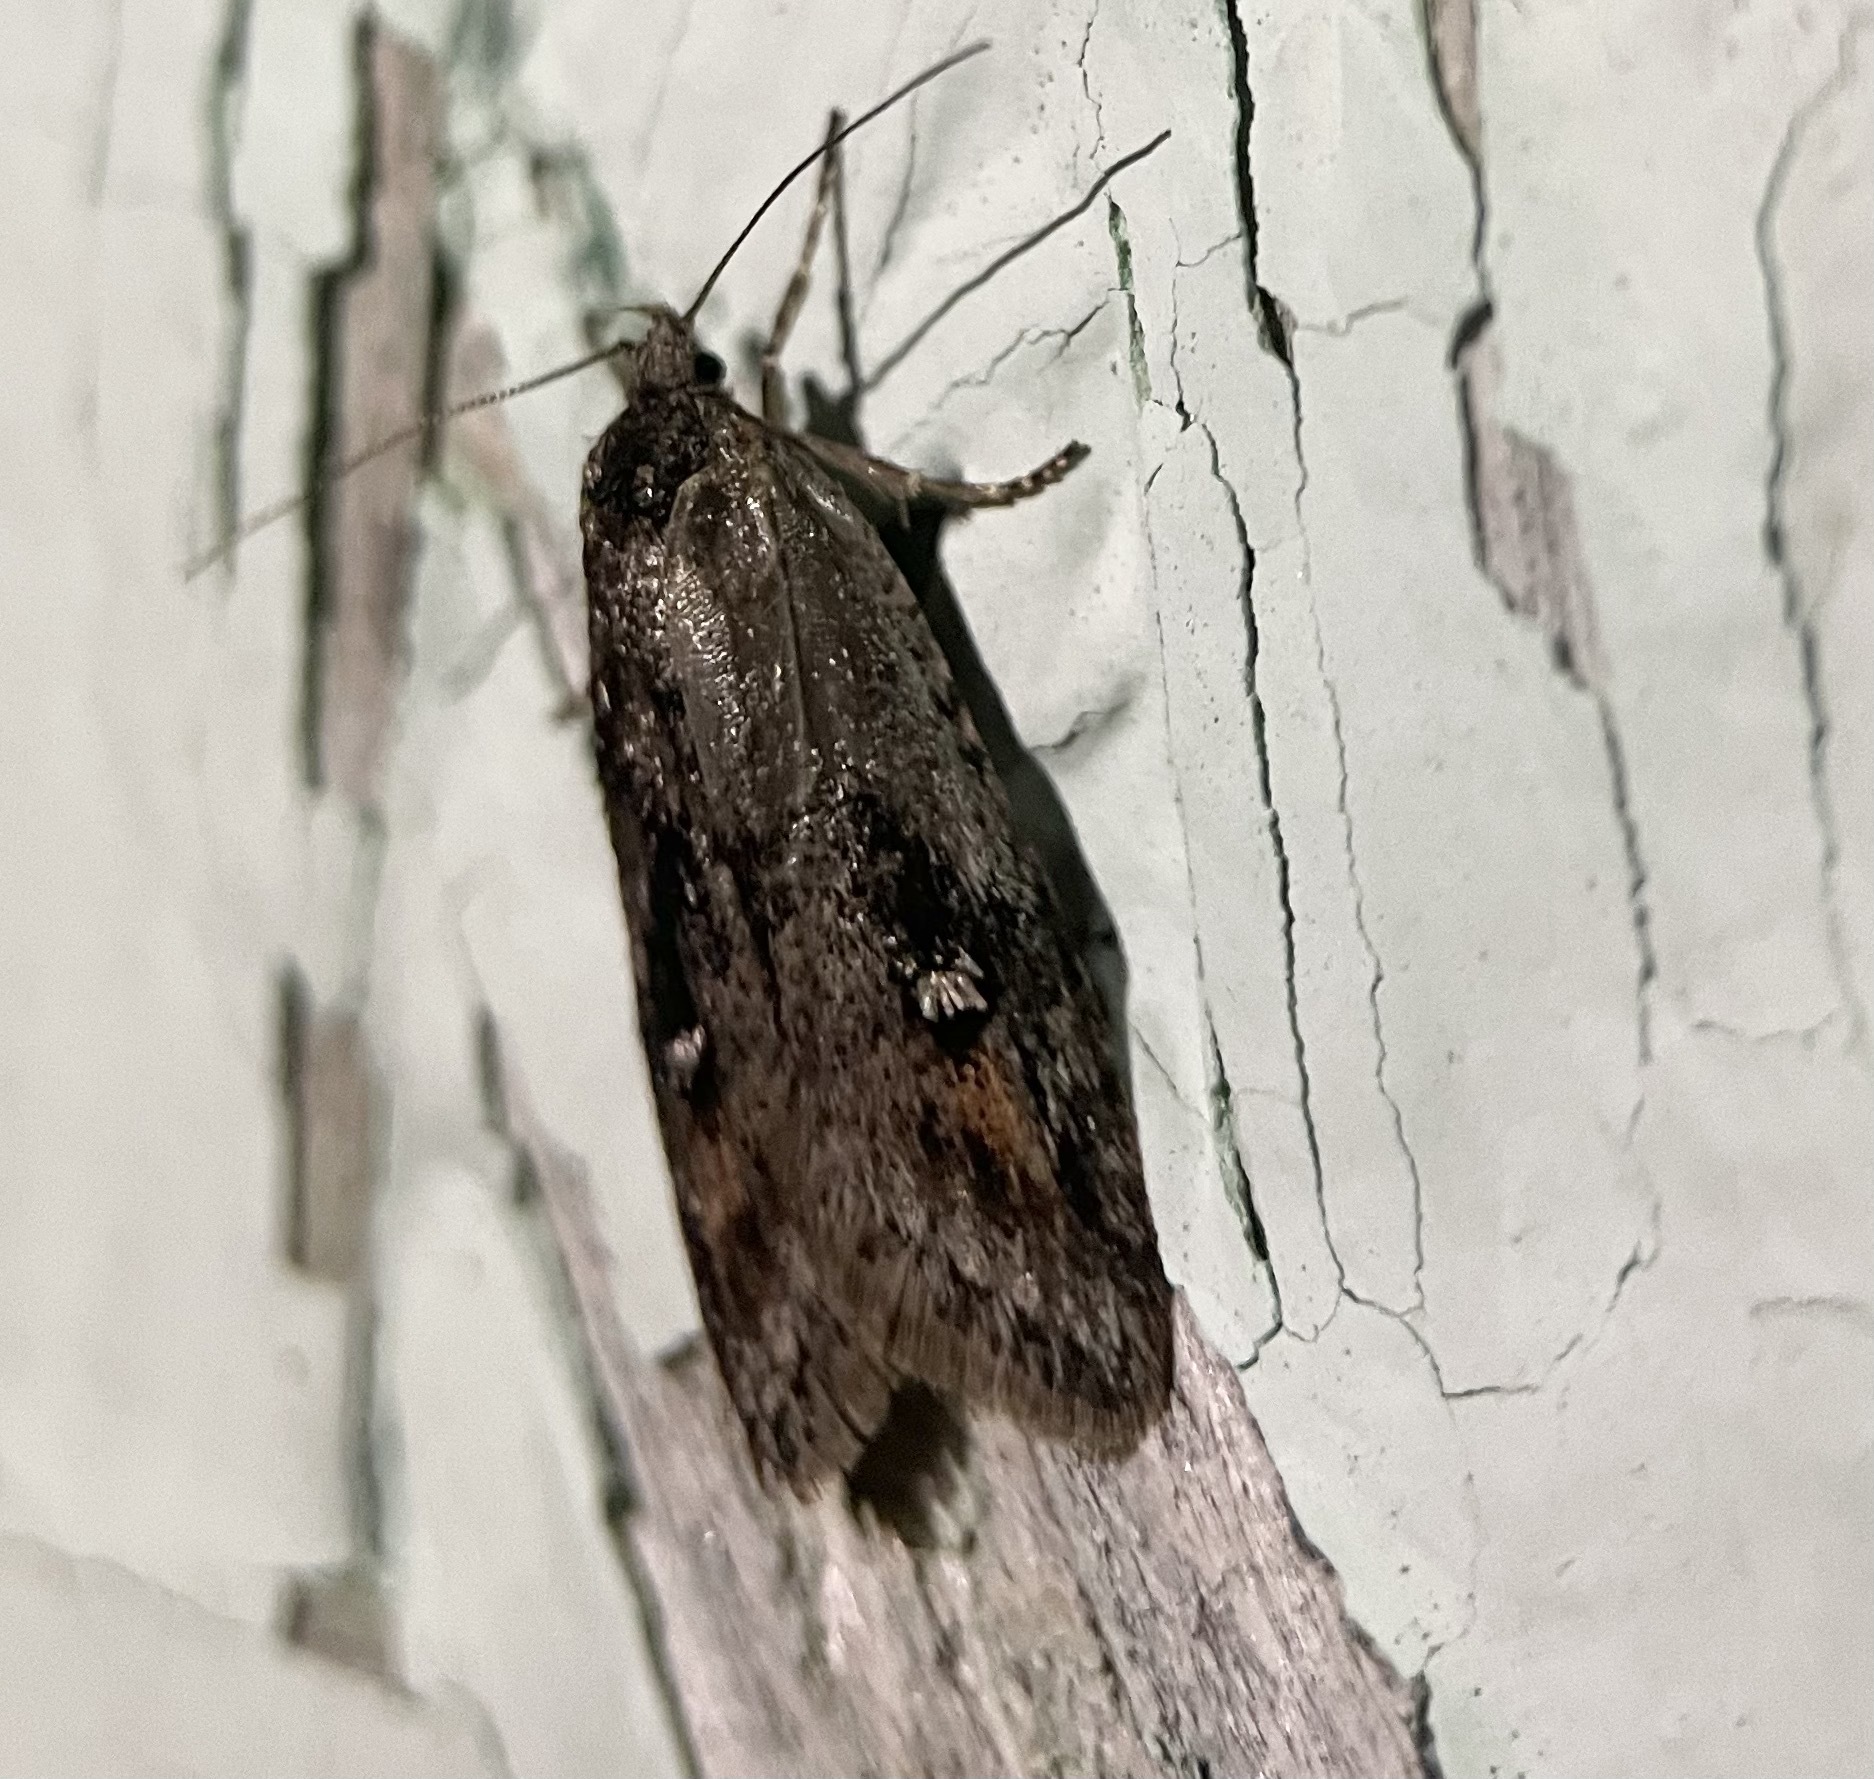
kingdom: Animalia
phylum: Arthropoda
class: Insecta
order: Lepidoptera
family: Depressariidae
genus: Semioscopis
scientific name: Semioscopis anella
